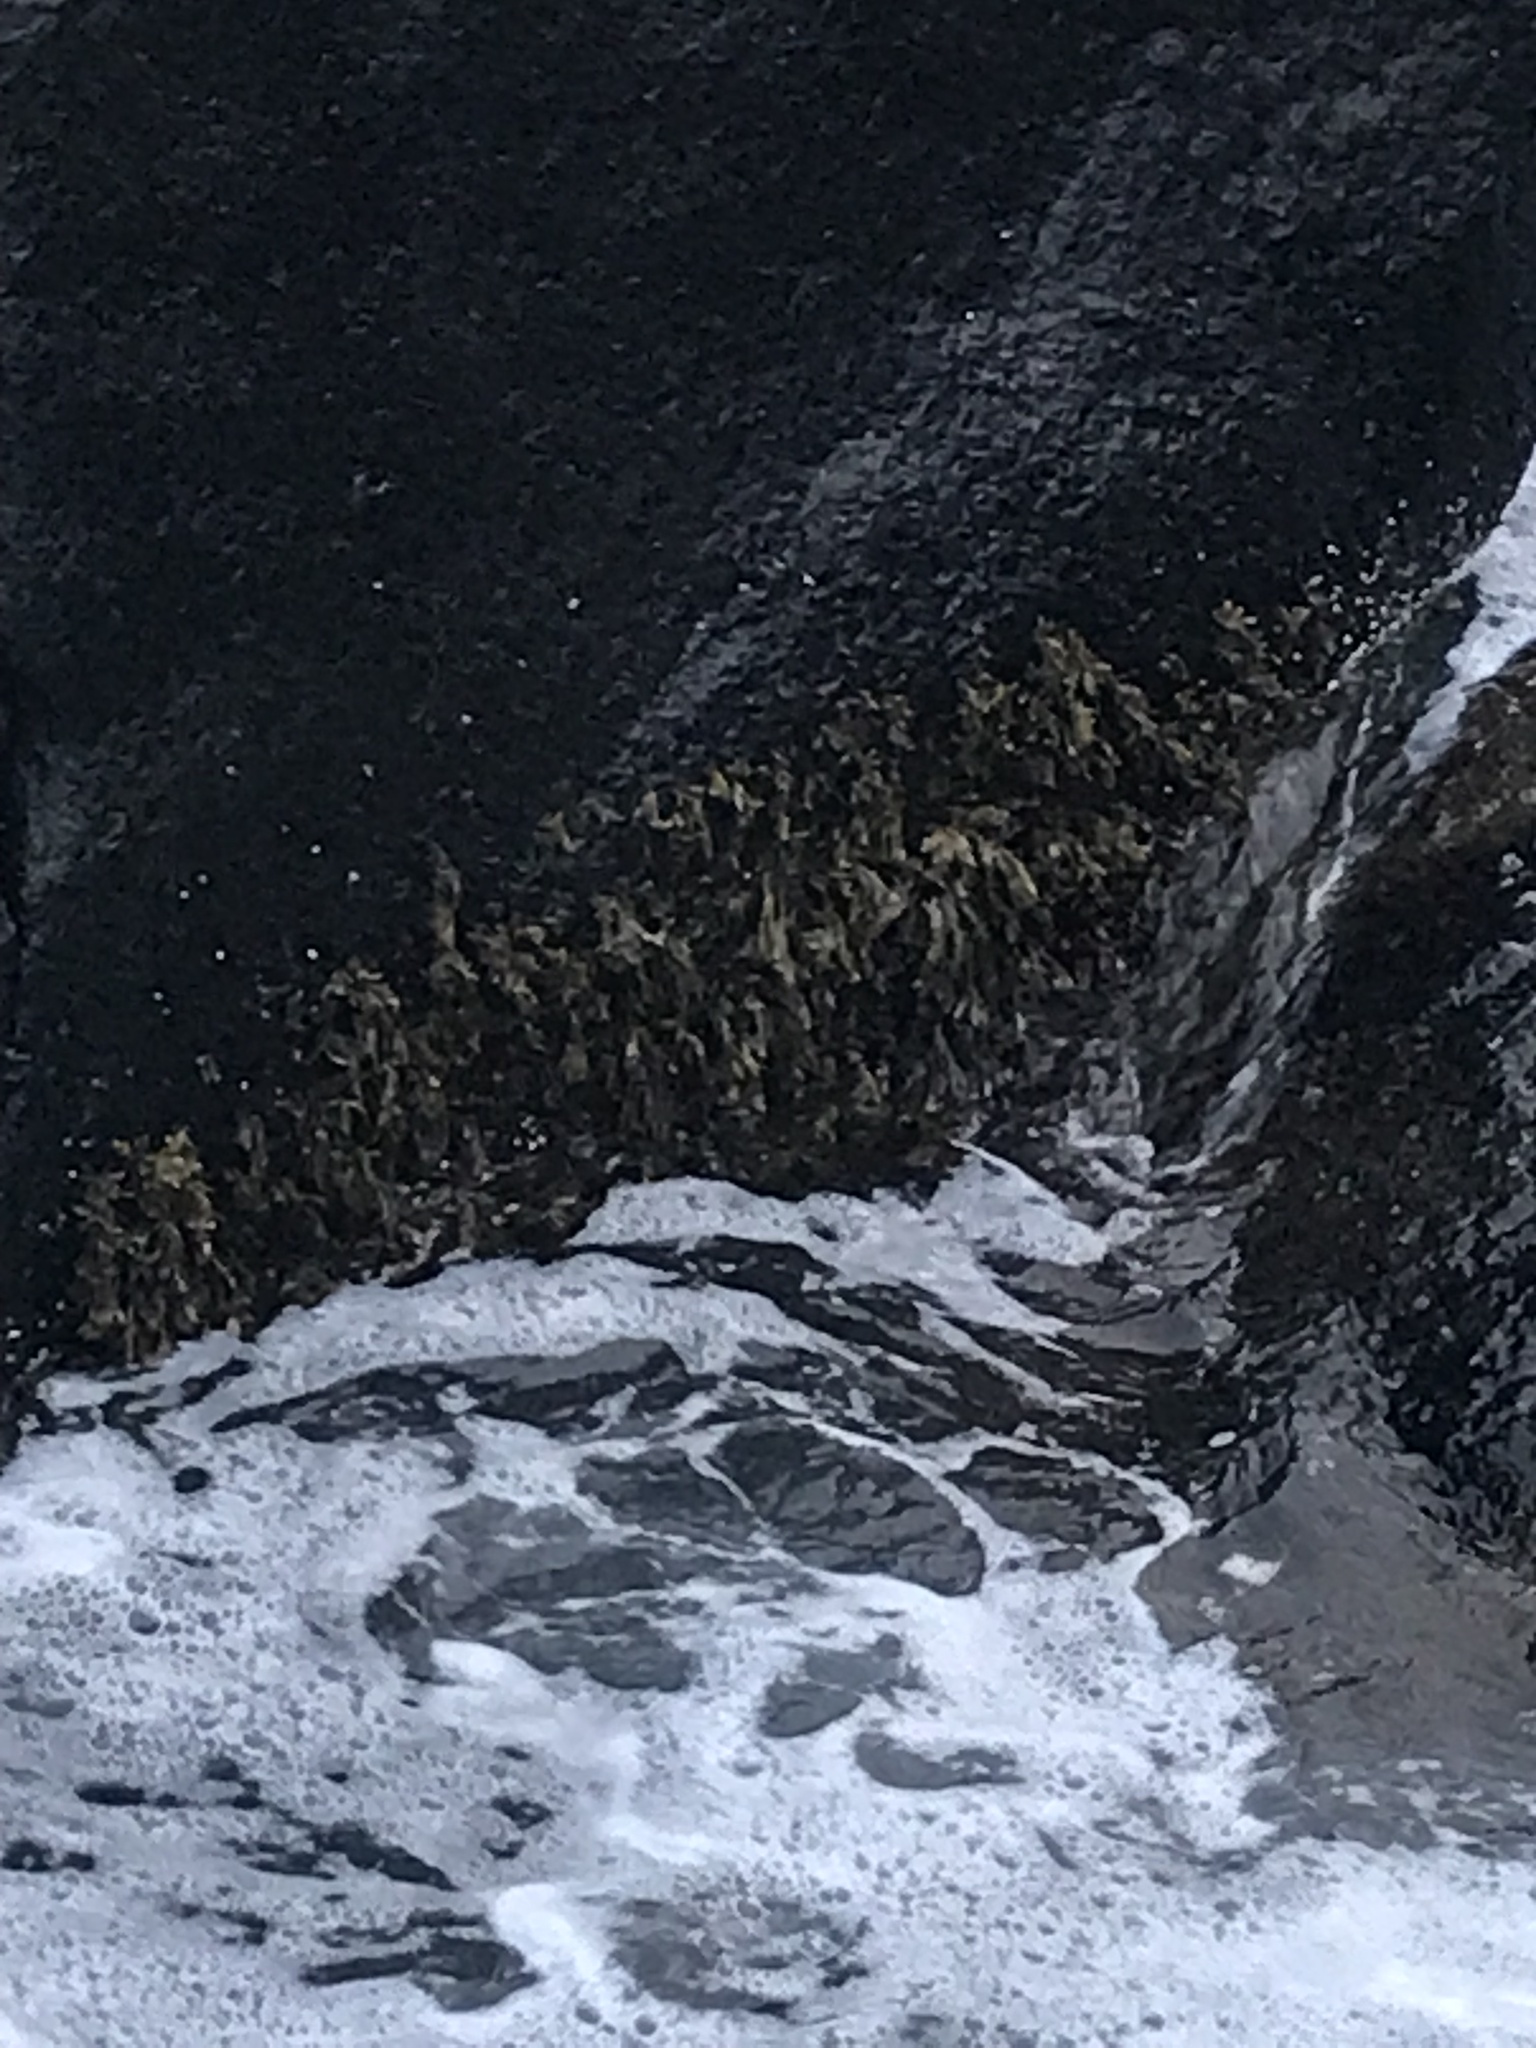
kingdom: Chromista
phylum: Ochrophyta
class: Phaeophyceae
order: Fucales
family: Fucaceae
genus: Fucus
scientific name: Fucus
